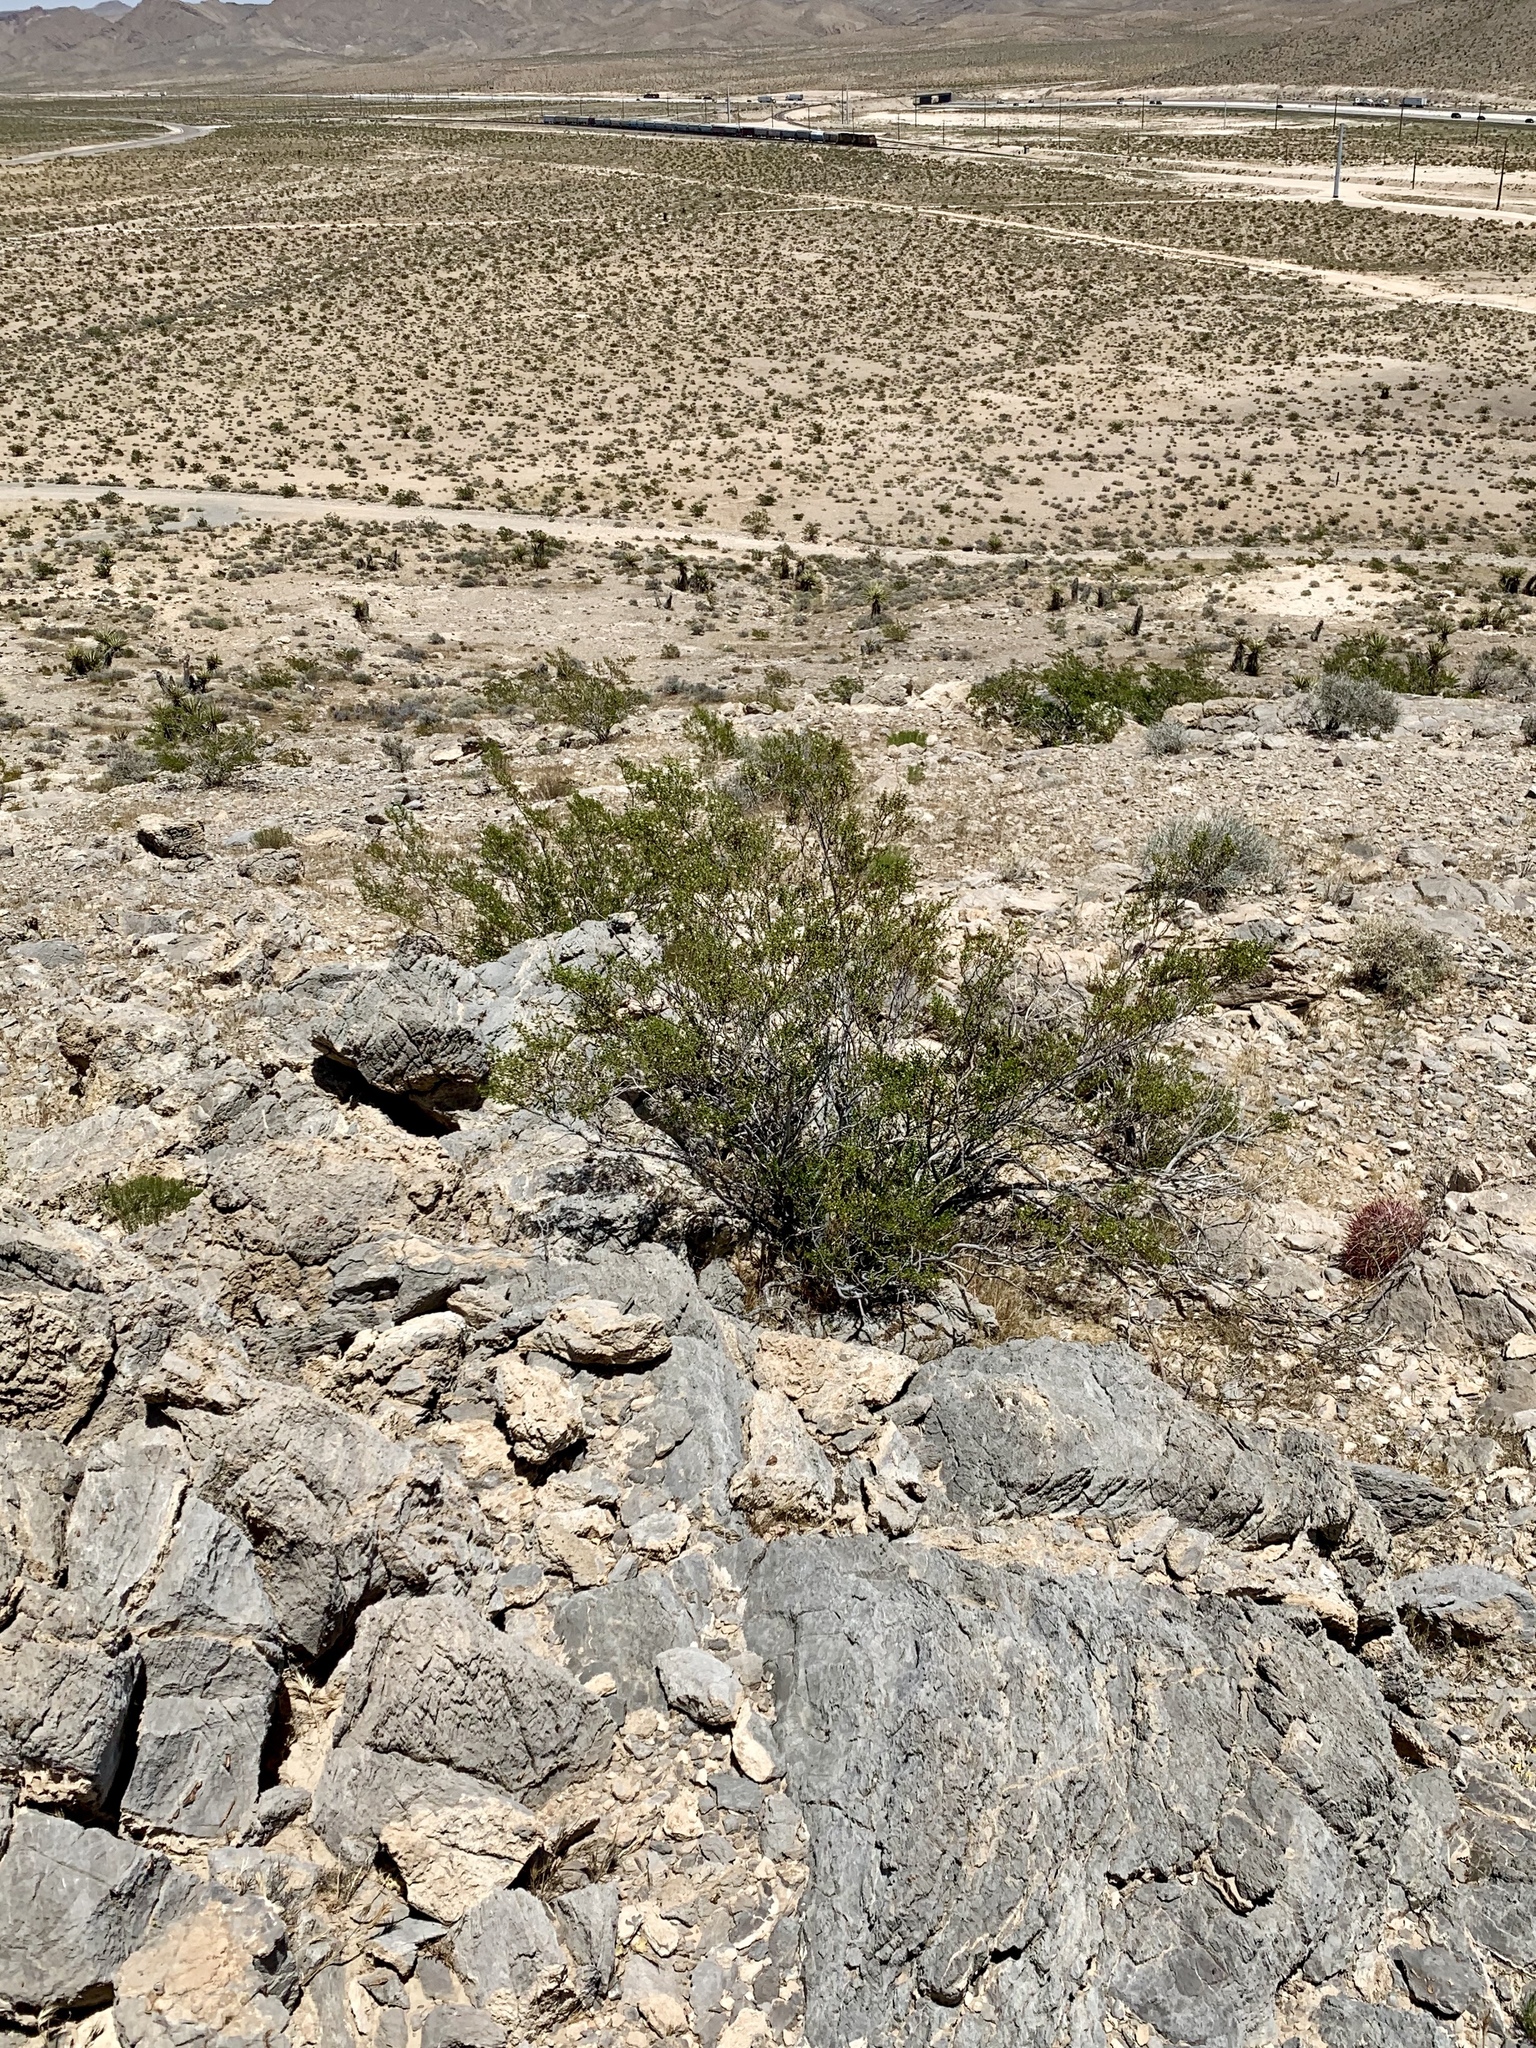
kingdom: Plantae
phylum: Tracheophyta
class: Magnoliopsida
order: Zygophyllales
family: Zygophyllaceae
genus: Larrea
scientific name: Larrea tridentata
